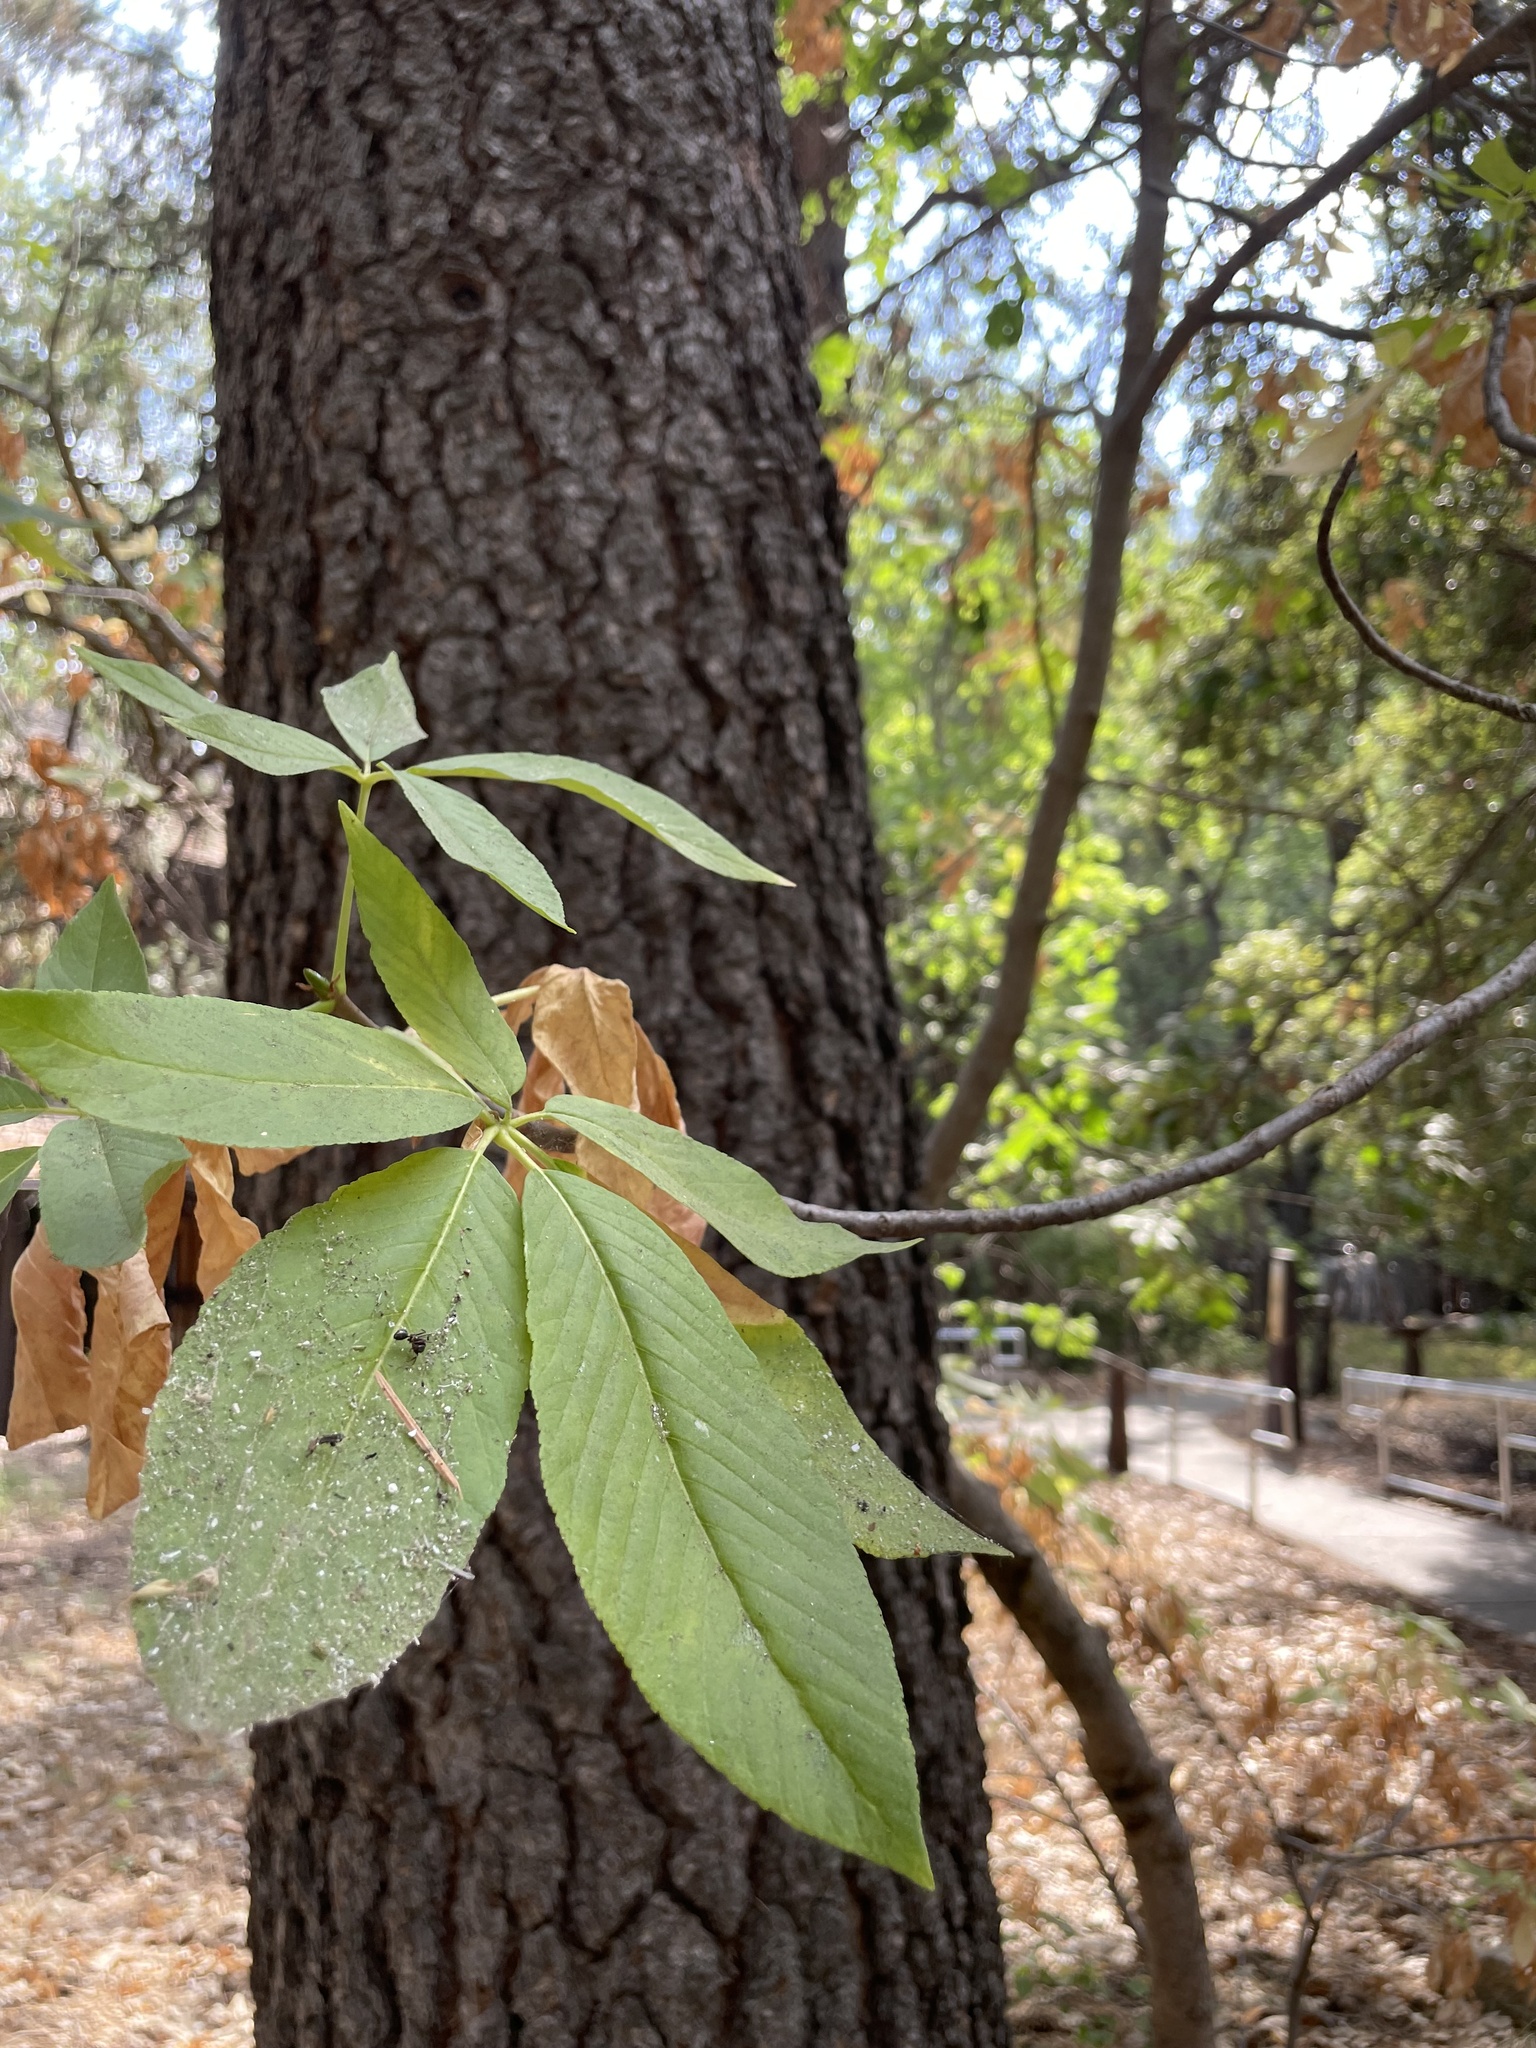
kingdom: Plantae
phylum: Tracheophyta
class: Magnoliopsida
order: Sapindales
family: Sapindaceae
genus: Aesculus
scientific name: Aesculus californica
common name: California buckeye
